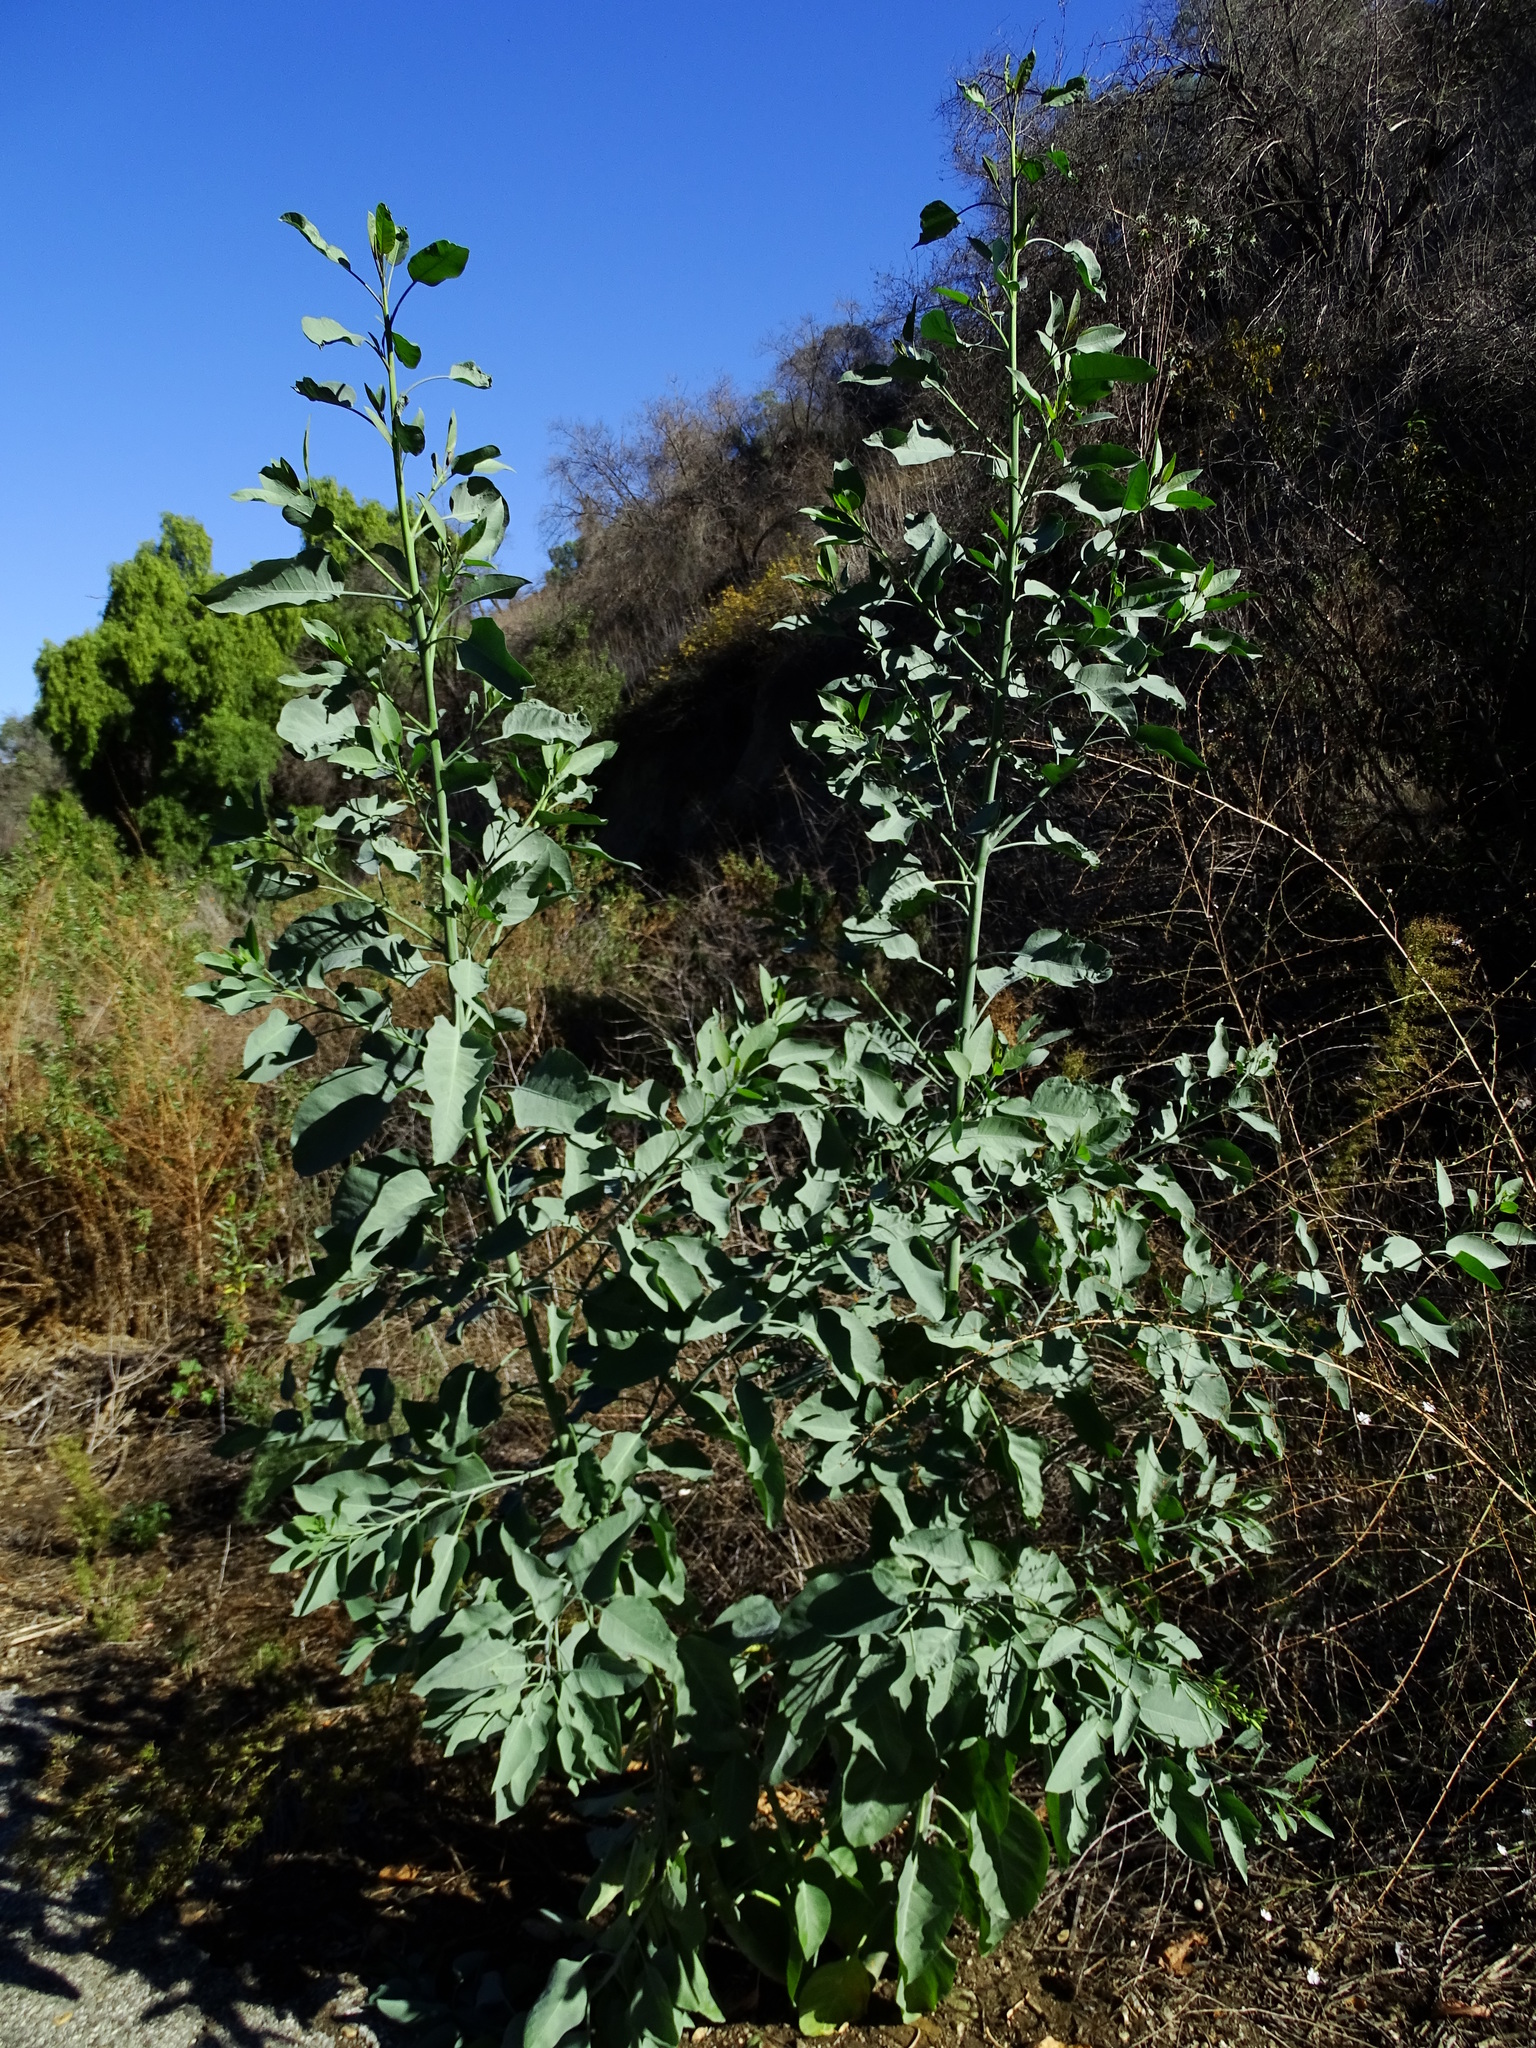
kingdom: Plantae
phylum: Tracheophyta
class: Magnoliopsida
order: Solanales
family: Solanaceae
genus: Nicotiana
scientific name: Nicotiana glauca
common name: Tree tobacco
